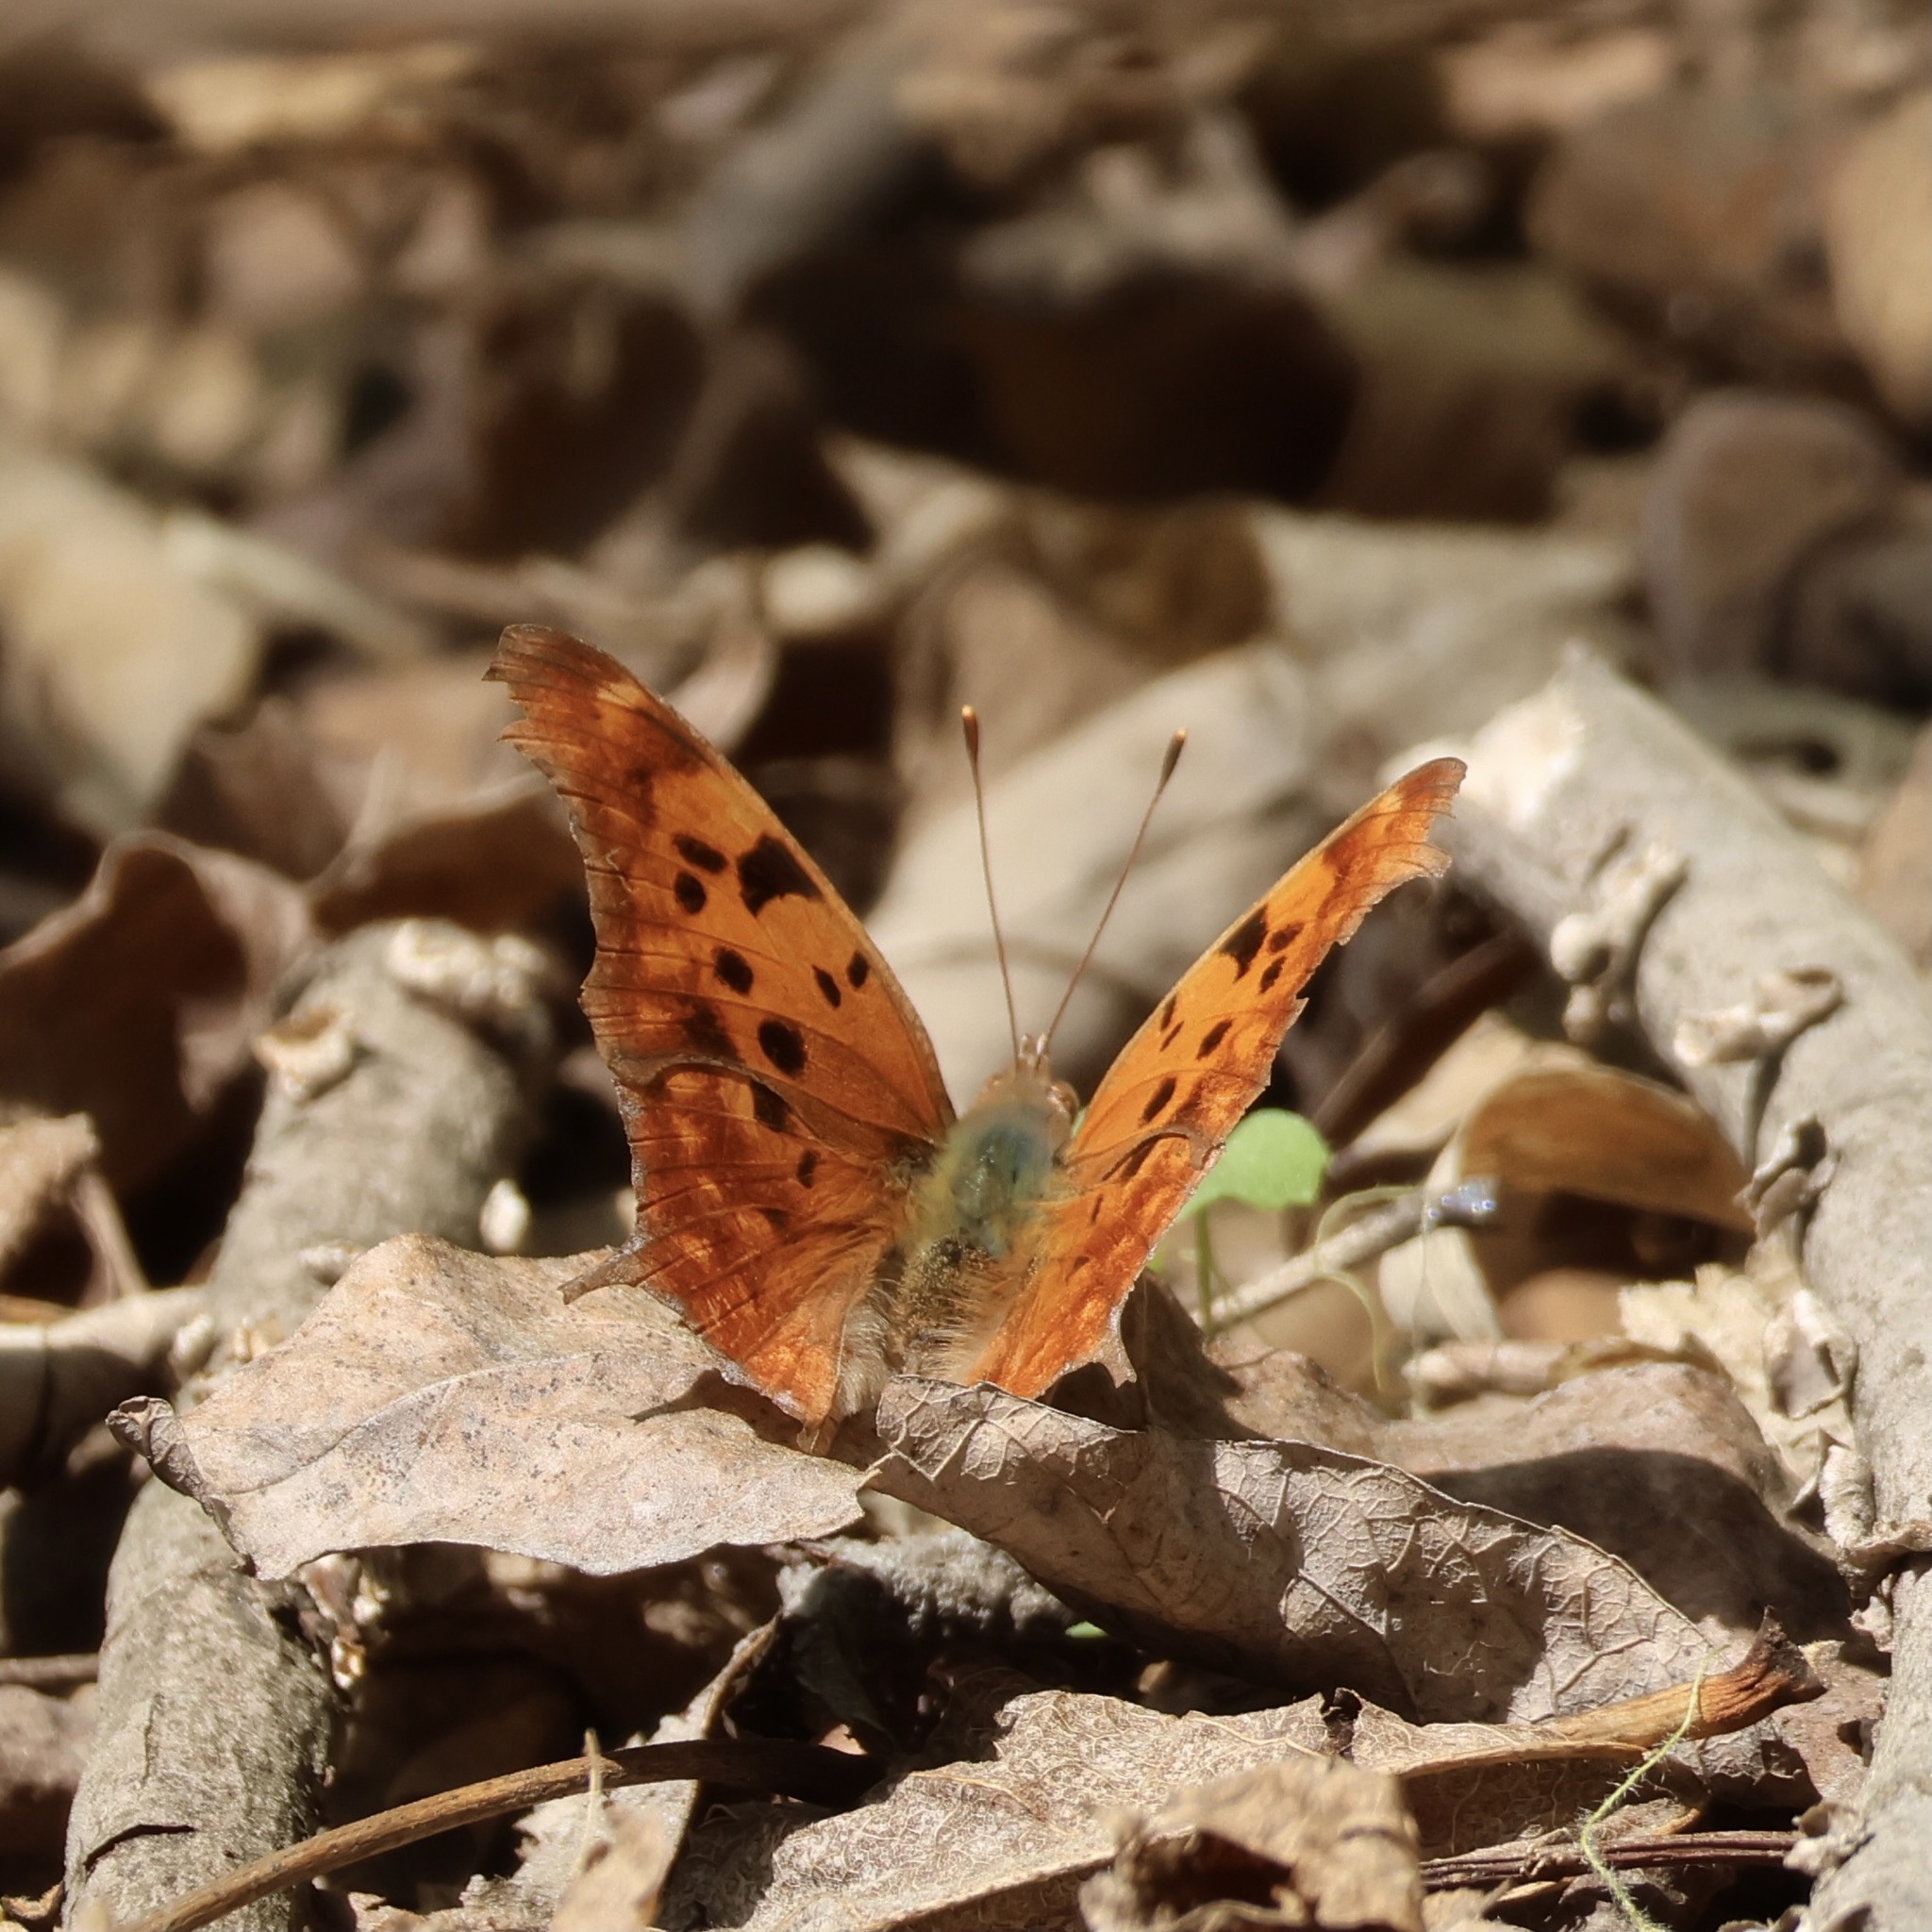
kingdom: Animalia
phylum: Arthropoda
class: Insecta
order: Lepidoptera
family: Nymphalidae
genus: Polygonia
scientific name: Polygonia interrogationis
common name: Question mark
